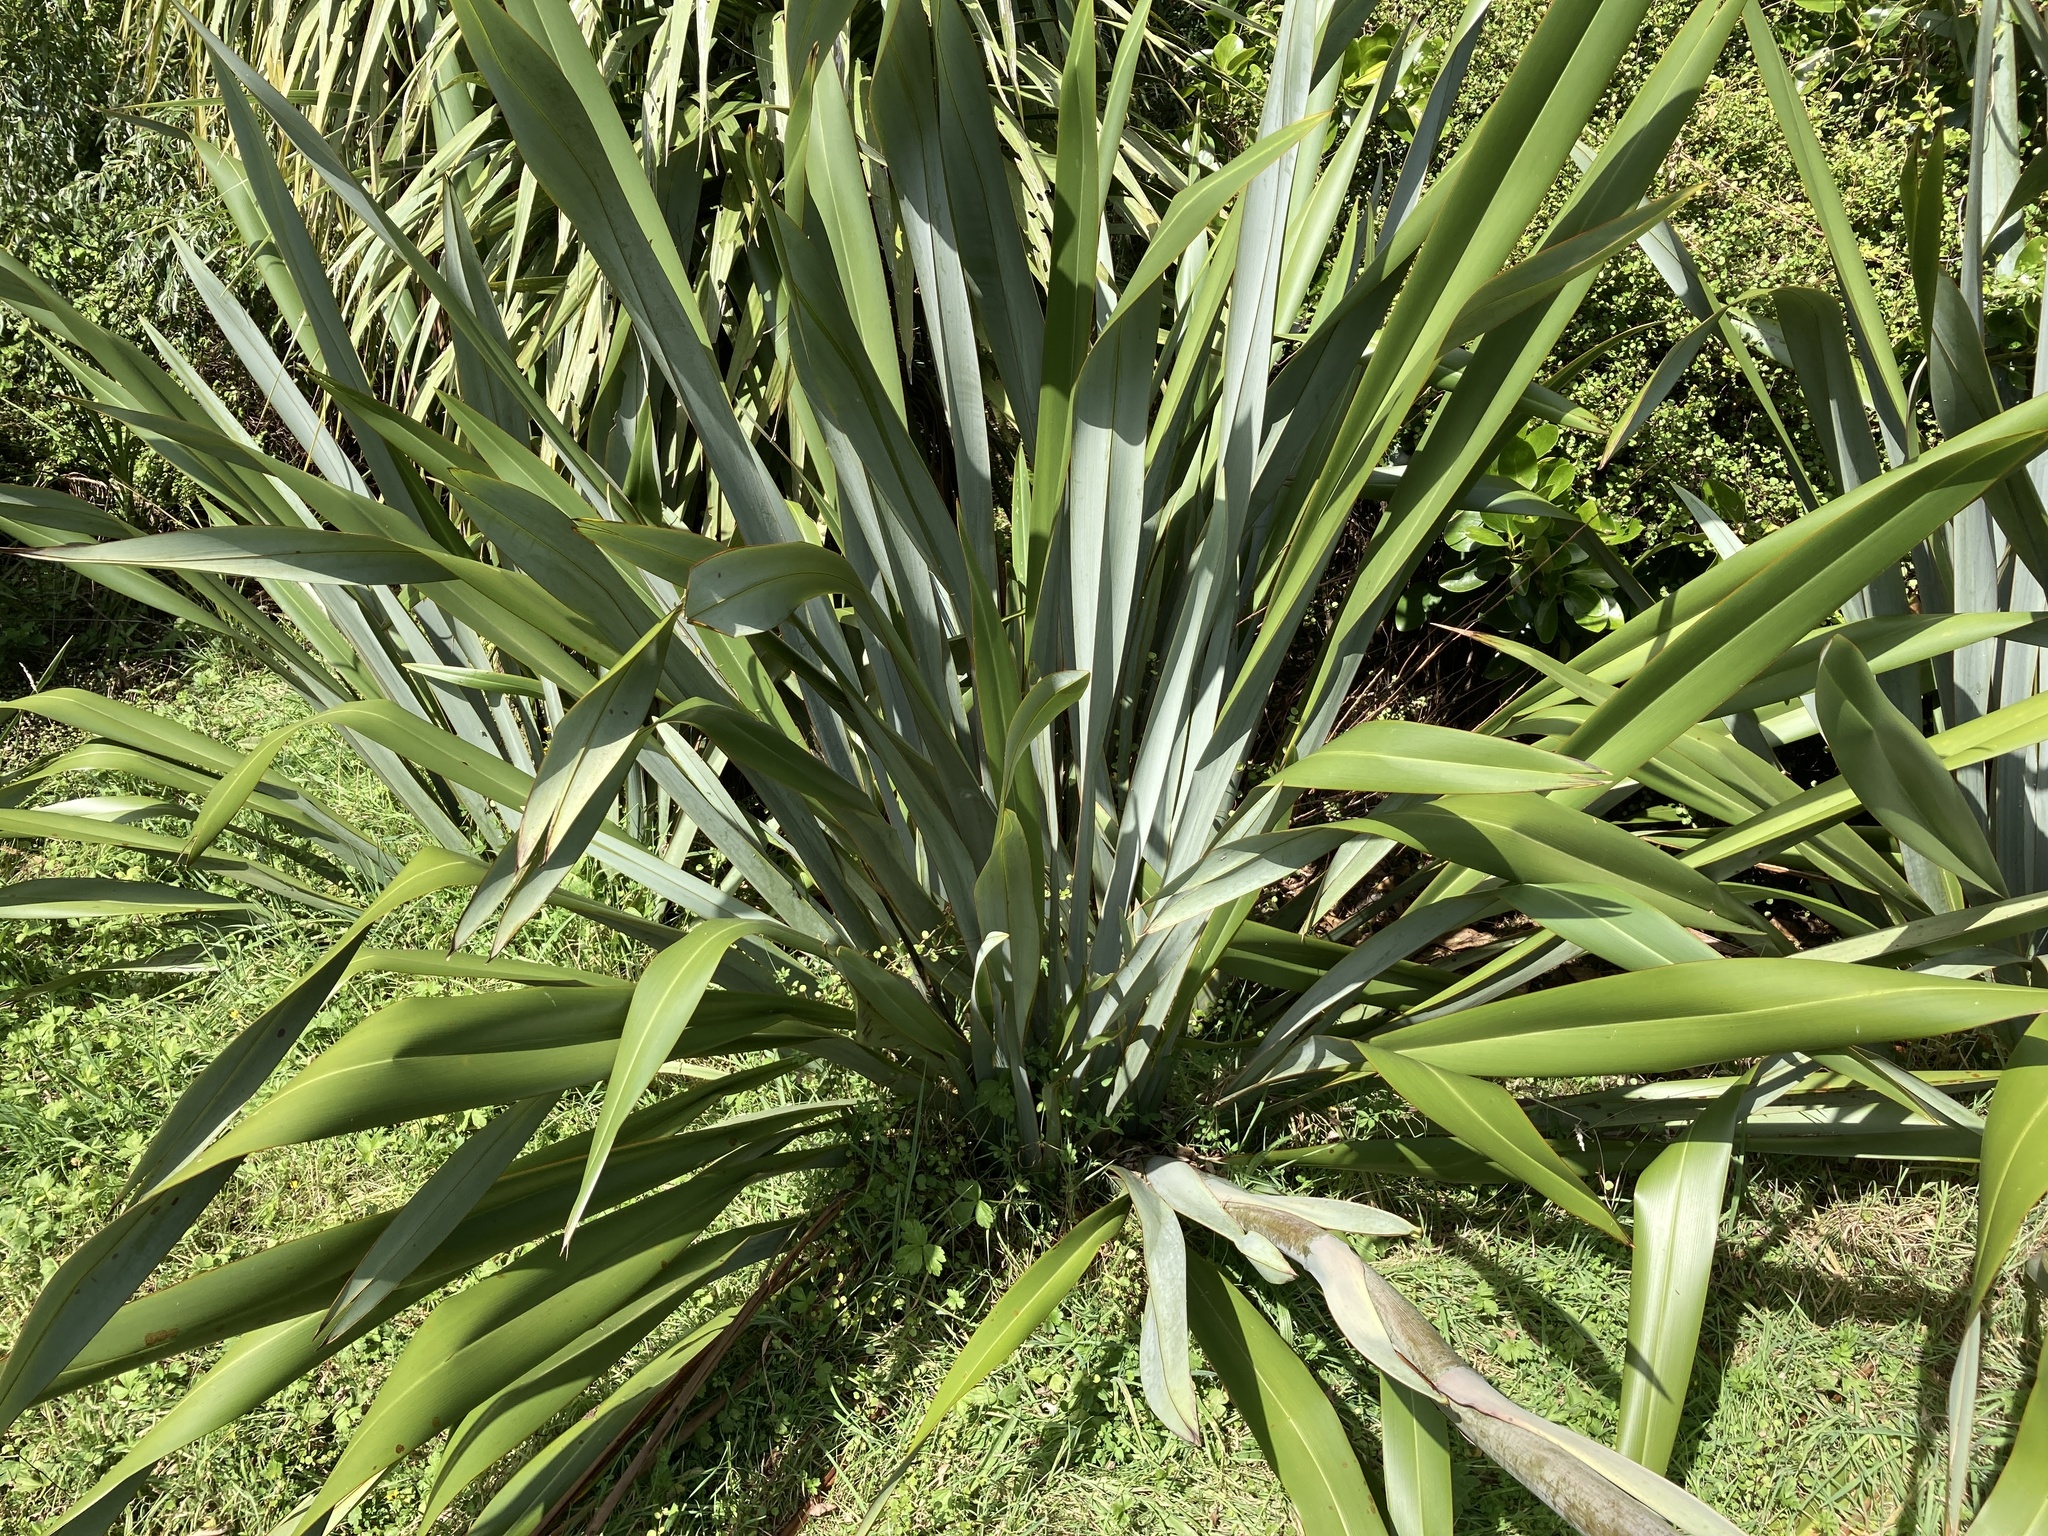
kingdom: Plantae
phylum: Tracheophyta
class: Liliopsida
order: Asparagales
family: Asphodelaceae
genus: Phormium
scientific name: Phormium tenax
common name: New zealand flax
